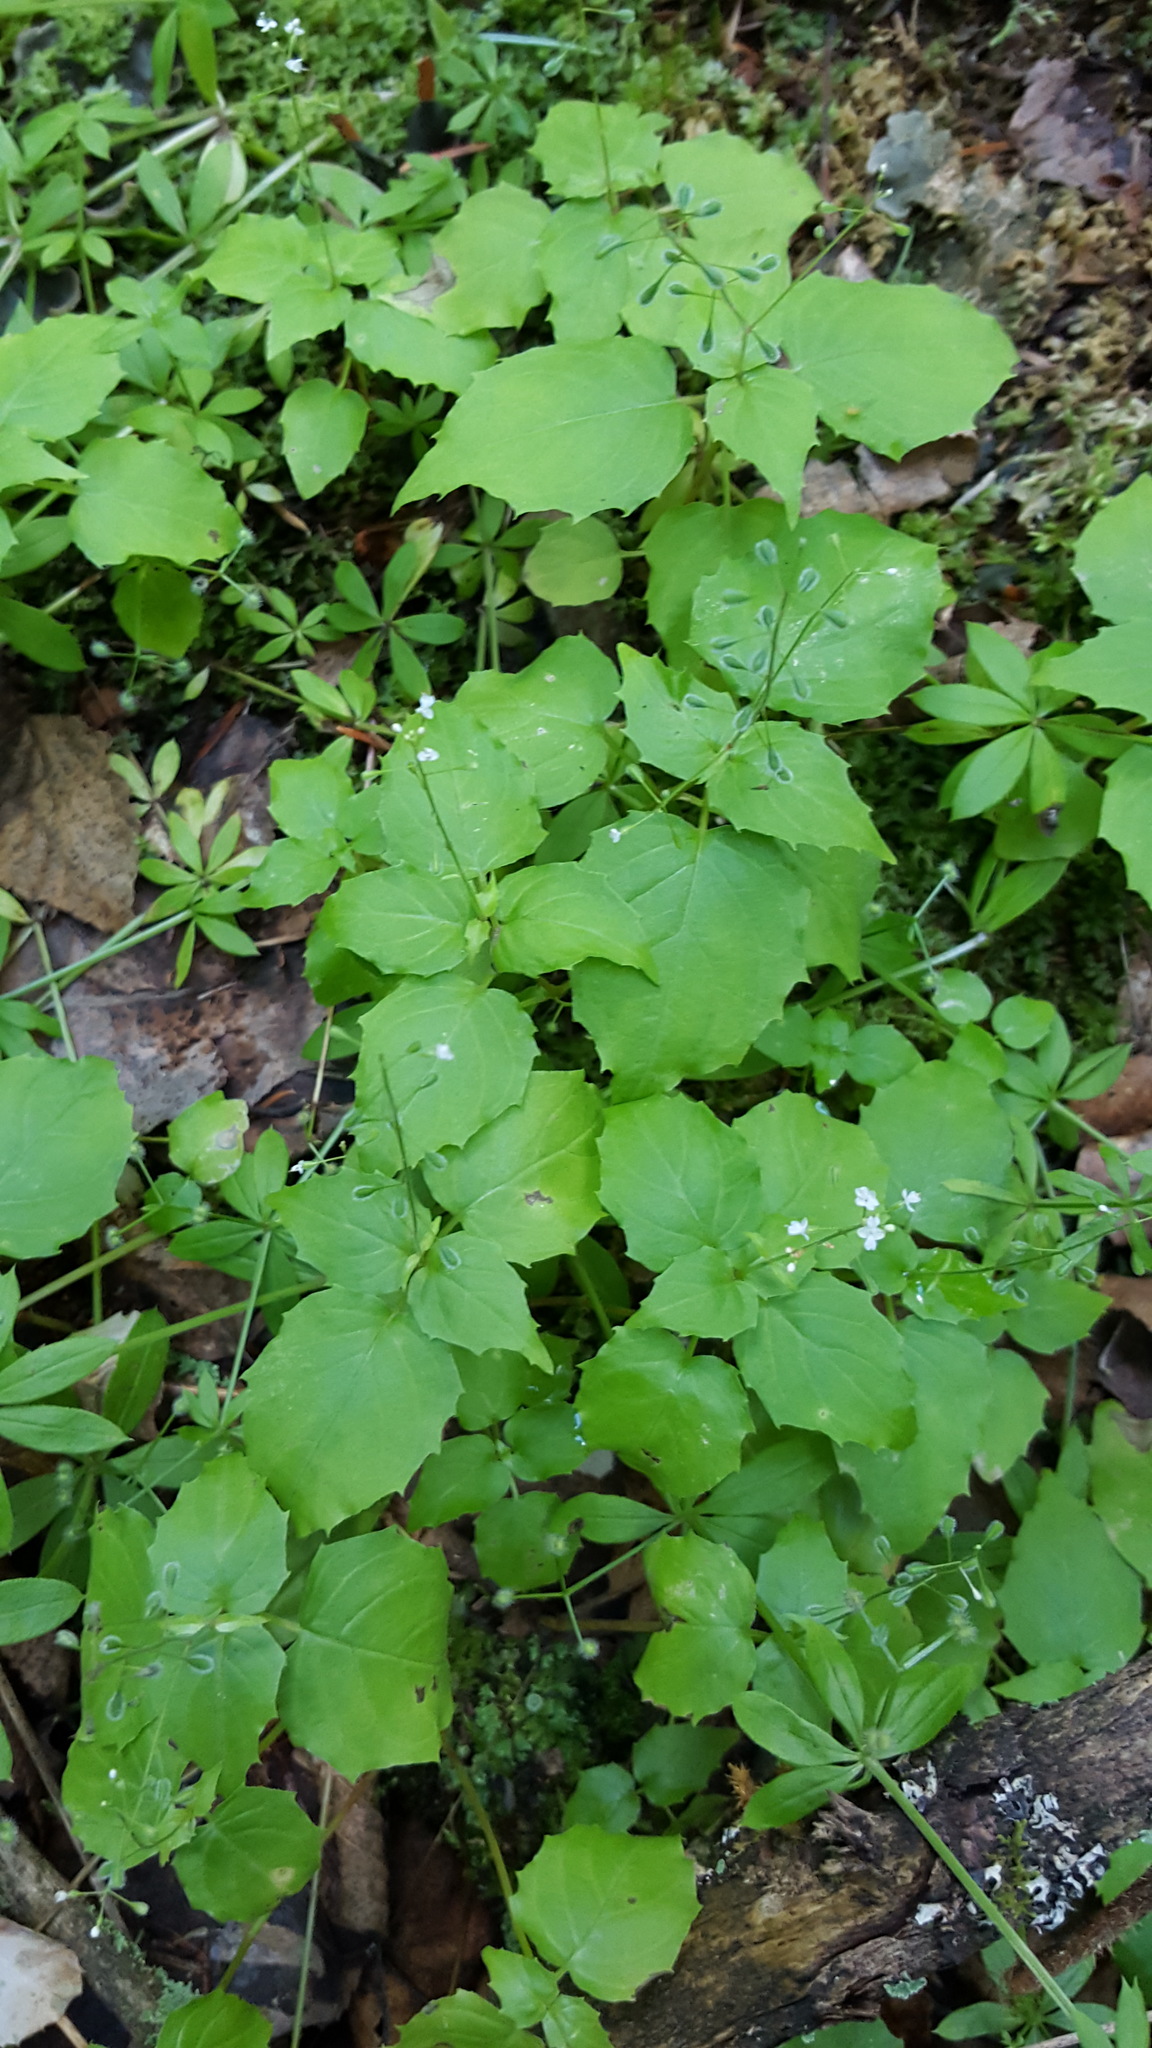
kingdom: Plantae
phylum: Tracheophyta
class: Magnoliopsida
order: Myrtales
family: Onagraceae
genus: Circaea
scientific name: Circaea alpina
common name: Alpine enchanter's-nightshade
